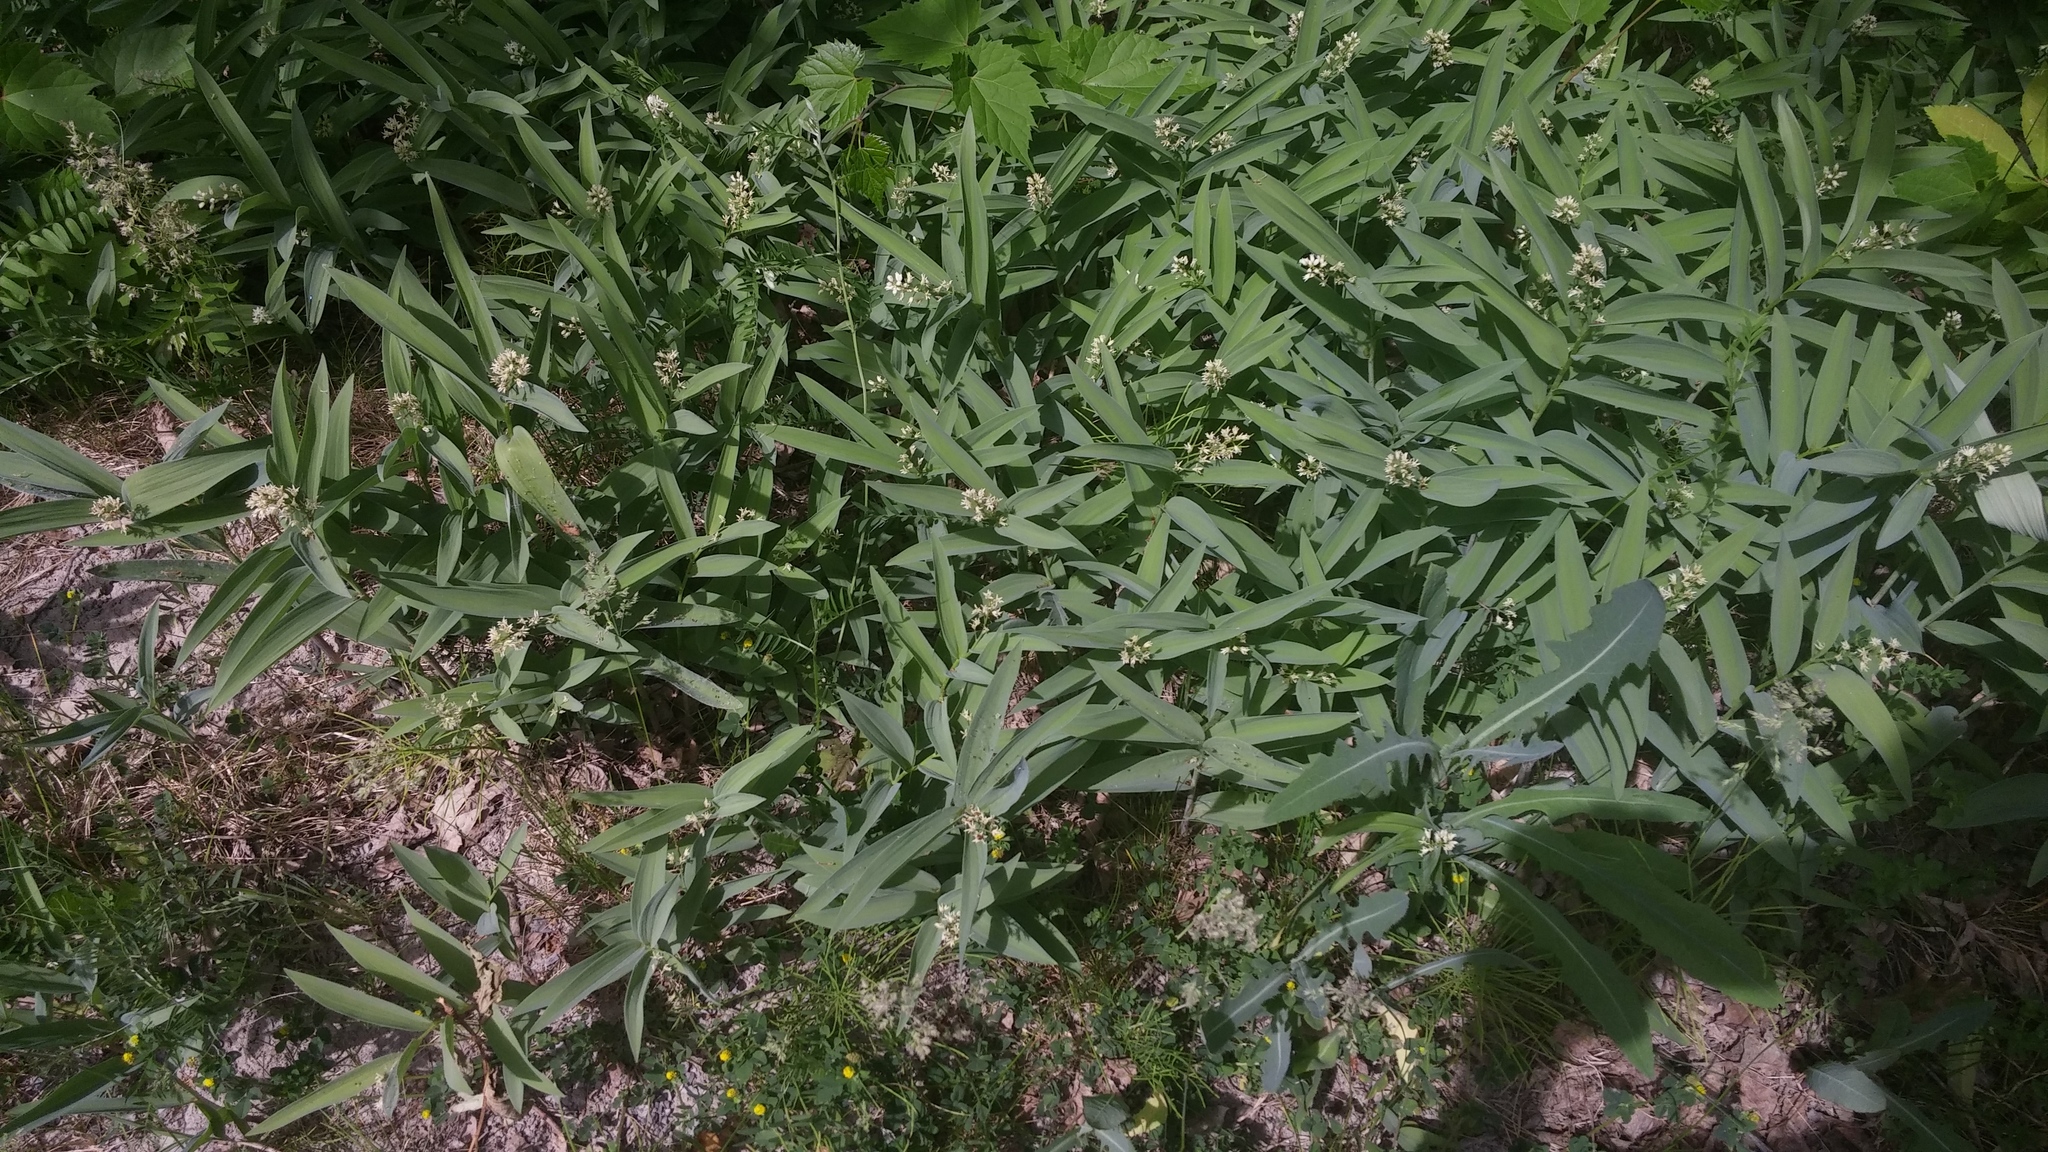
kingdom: Plantae
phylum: Tracheophyta
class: Liliopsida
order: Asparagales
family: Asparagaceae
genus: Maianthemum
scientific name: Maianthemum stellatum
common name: Little false solomon's seal
